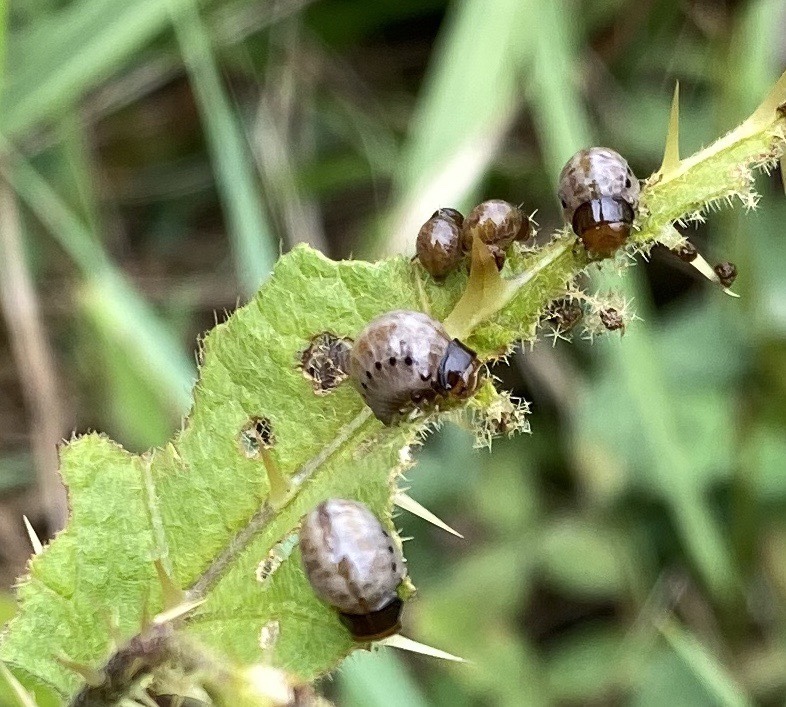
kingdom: Animalia
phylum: Arthropoda
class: Insecta
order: Coleoptera
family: Chrysomelidae
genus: Leptinotarsa
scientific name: Leptinotarsa juncta
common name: False potato beetle
